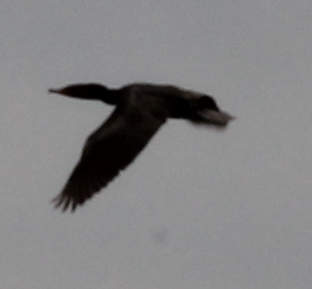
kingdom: Animalia
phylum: Chordata
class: Aves
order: Suliformes
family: Phalacrocoracidae
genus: Phalacrocorax
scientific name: Phalacrocorax auritus
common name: Double-crested cormorant
